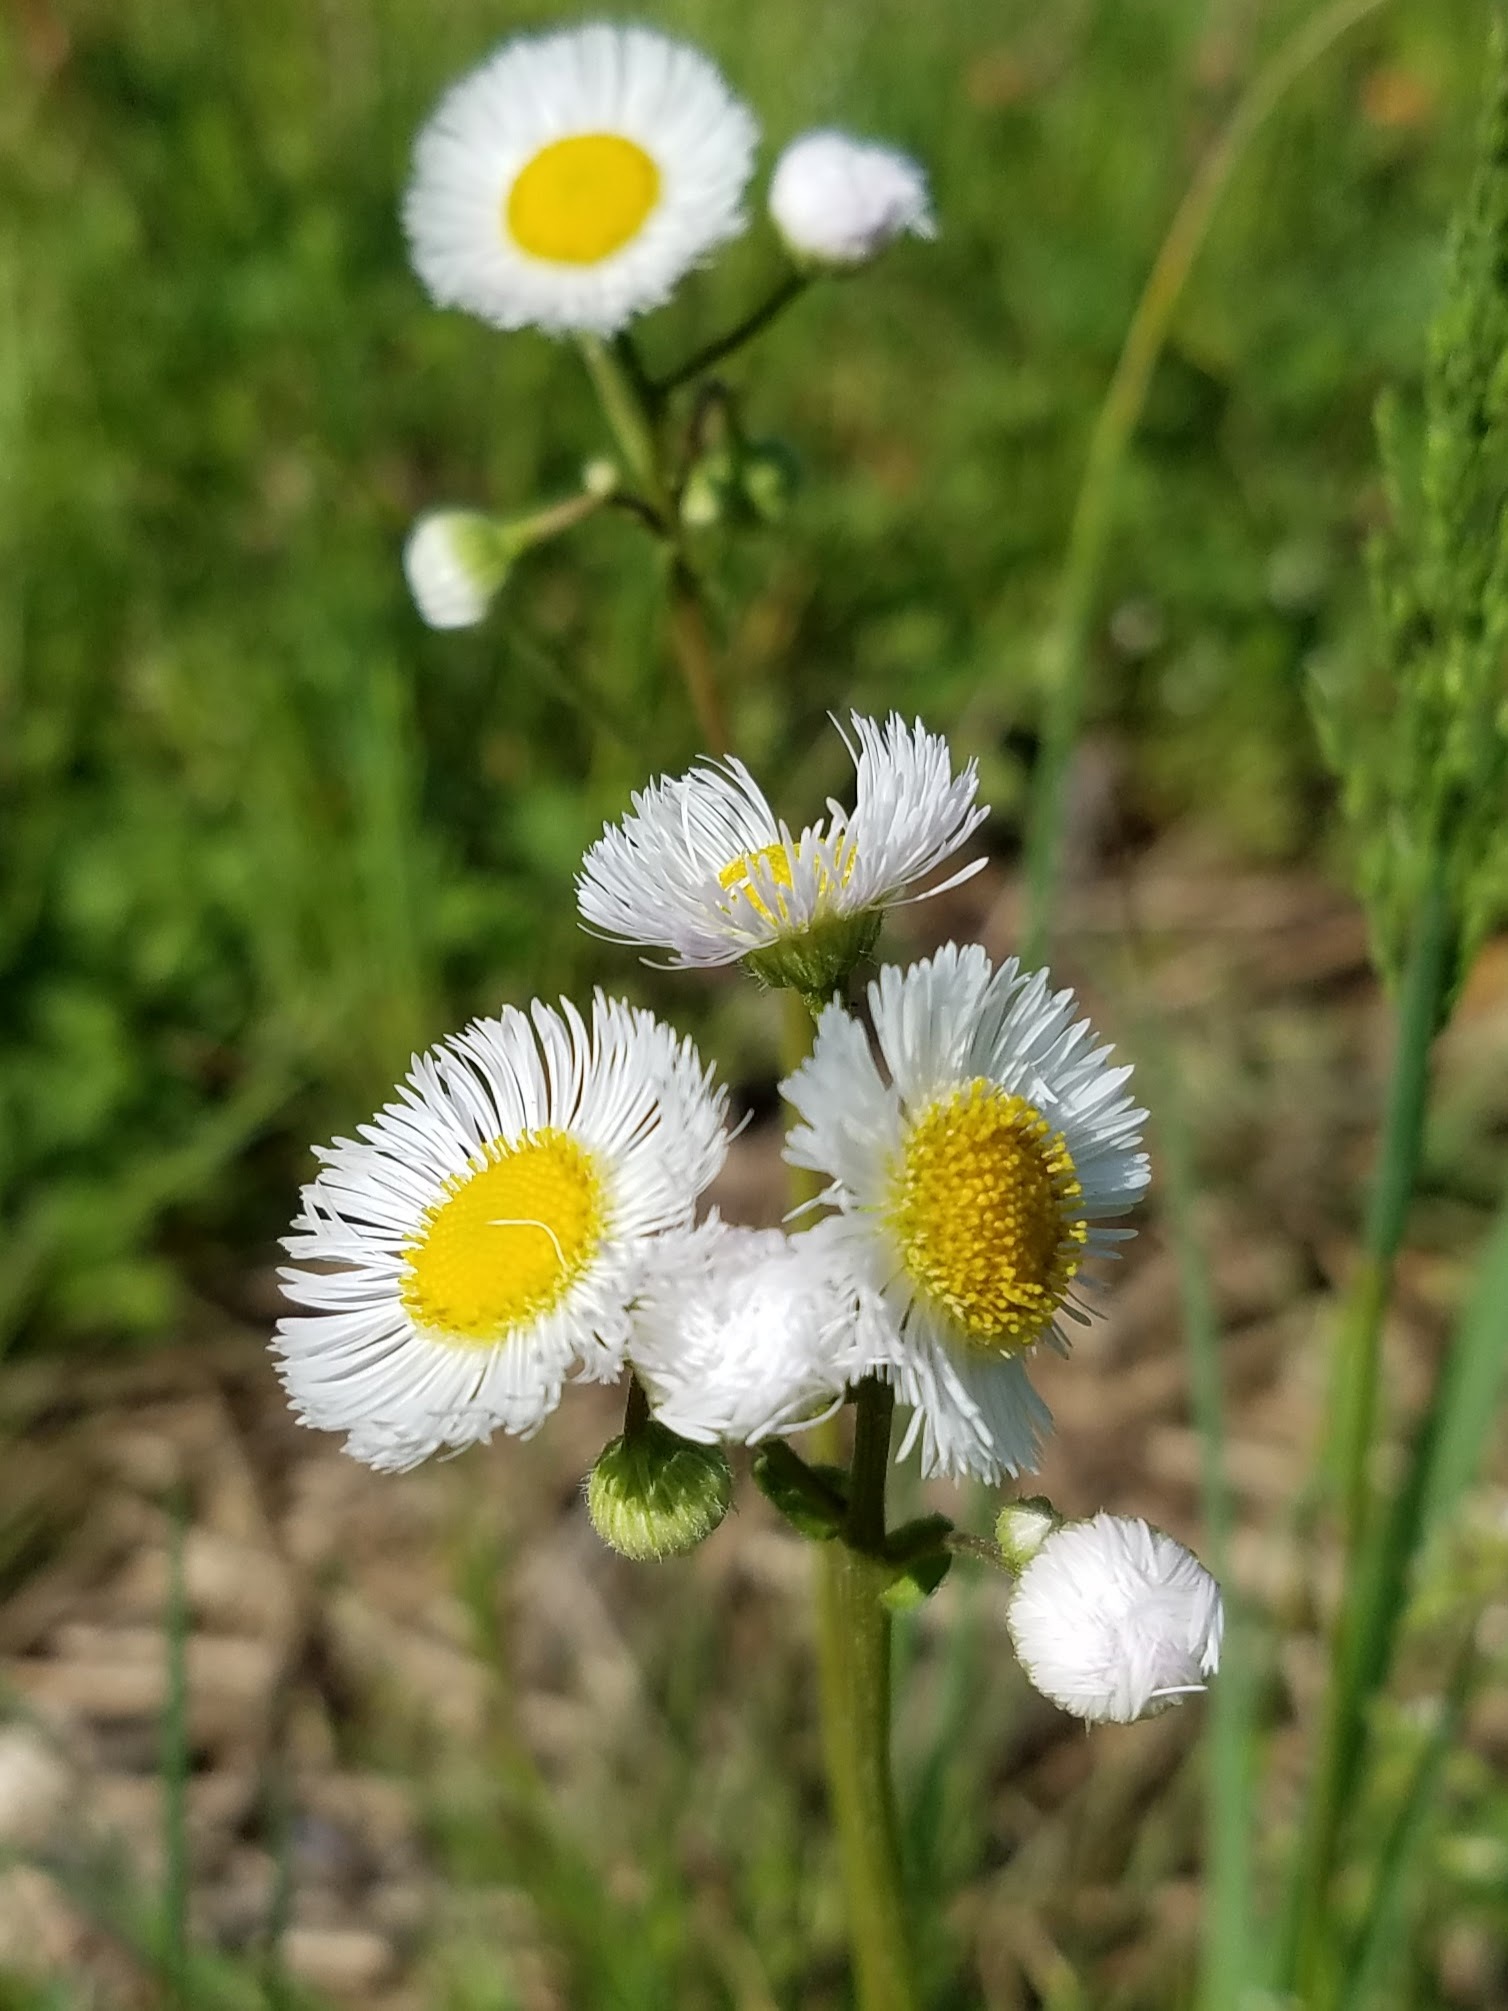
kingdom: Plantae
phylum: Tracheophyta
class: Magnoliopsida
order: Asterales
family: Asteraceae
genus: Erigeron
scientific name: Erigeron philadelphicus
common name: Robin's-plantain
